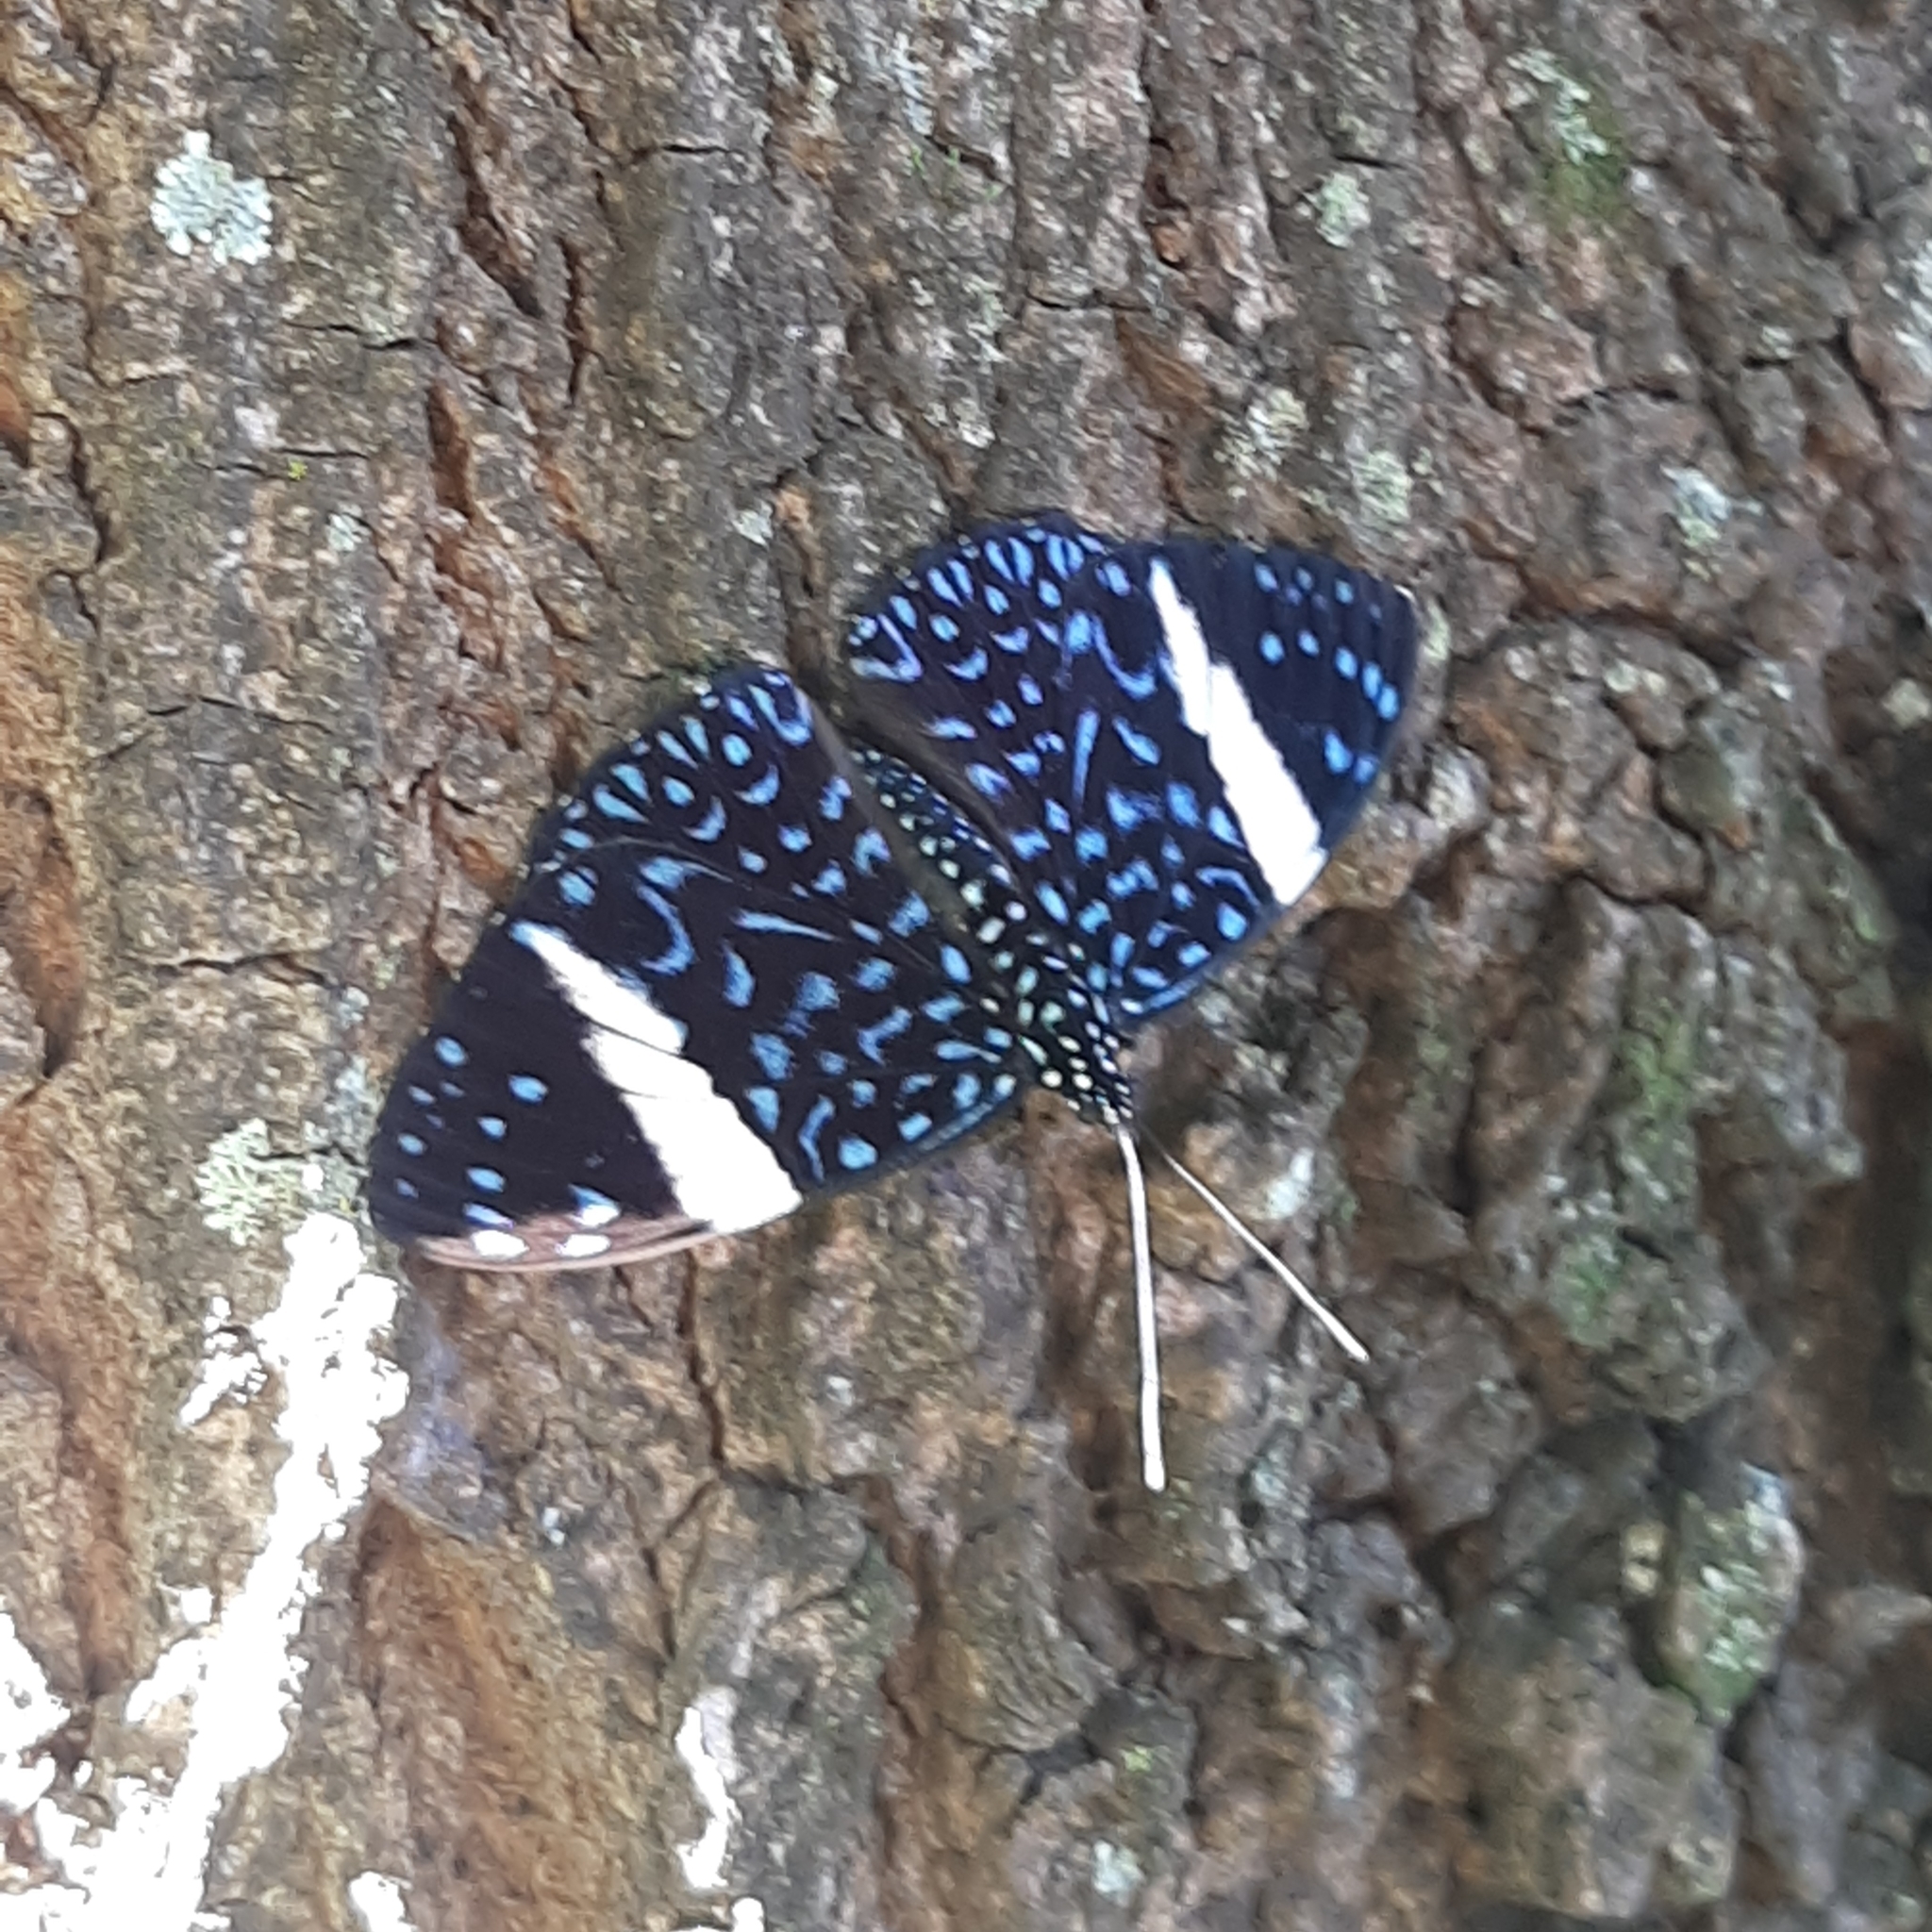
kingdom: Animalia
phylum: Arthropoda
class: Insecta
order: Lepidoptera
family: Nymphalidae
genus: Hamadryas
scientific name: Hamadryas laodamia
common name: Starry night cracker
